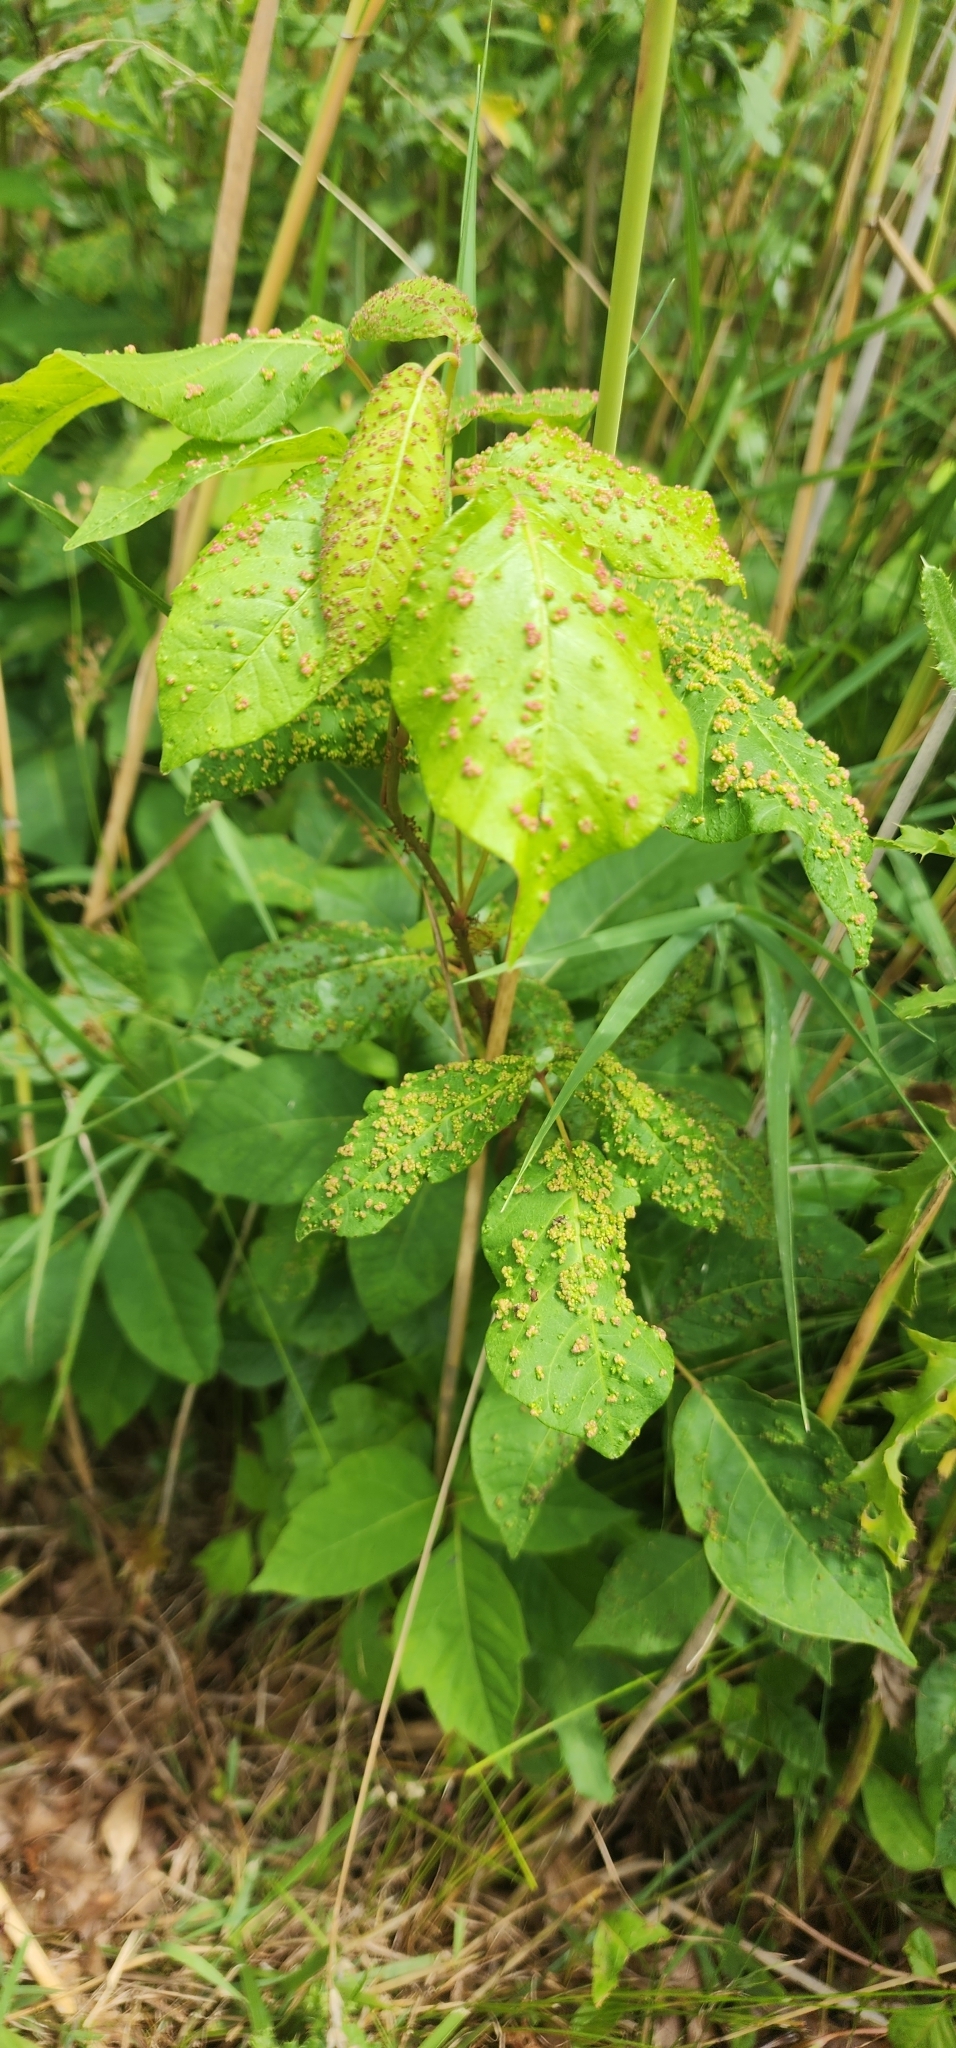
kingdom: Animalia
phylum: Arthropoda
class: Arachnida
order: Trombidiformes
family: Eriophyidae
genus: Aculops
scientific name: Aculops
